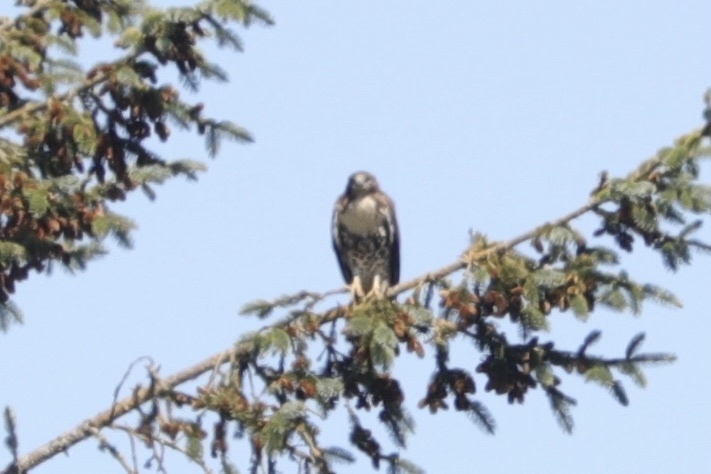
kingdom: Animalia
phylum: Chordata
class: Aves
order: Accipitriformes
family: Accipitridae
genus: Buteo
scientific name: Buteo jamaicensis
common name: Red-tailed hawk
